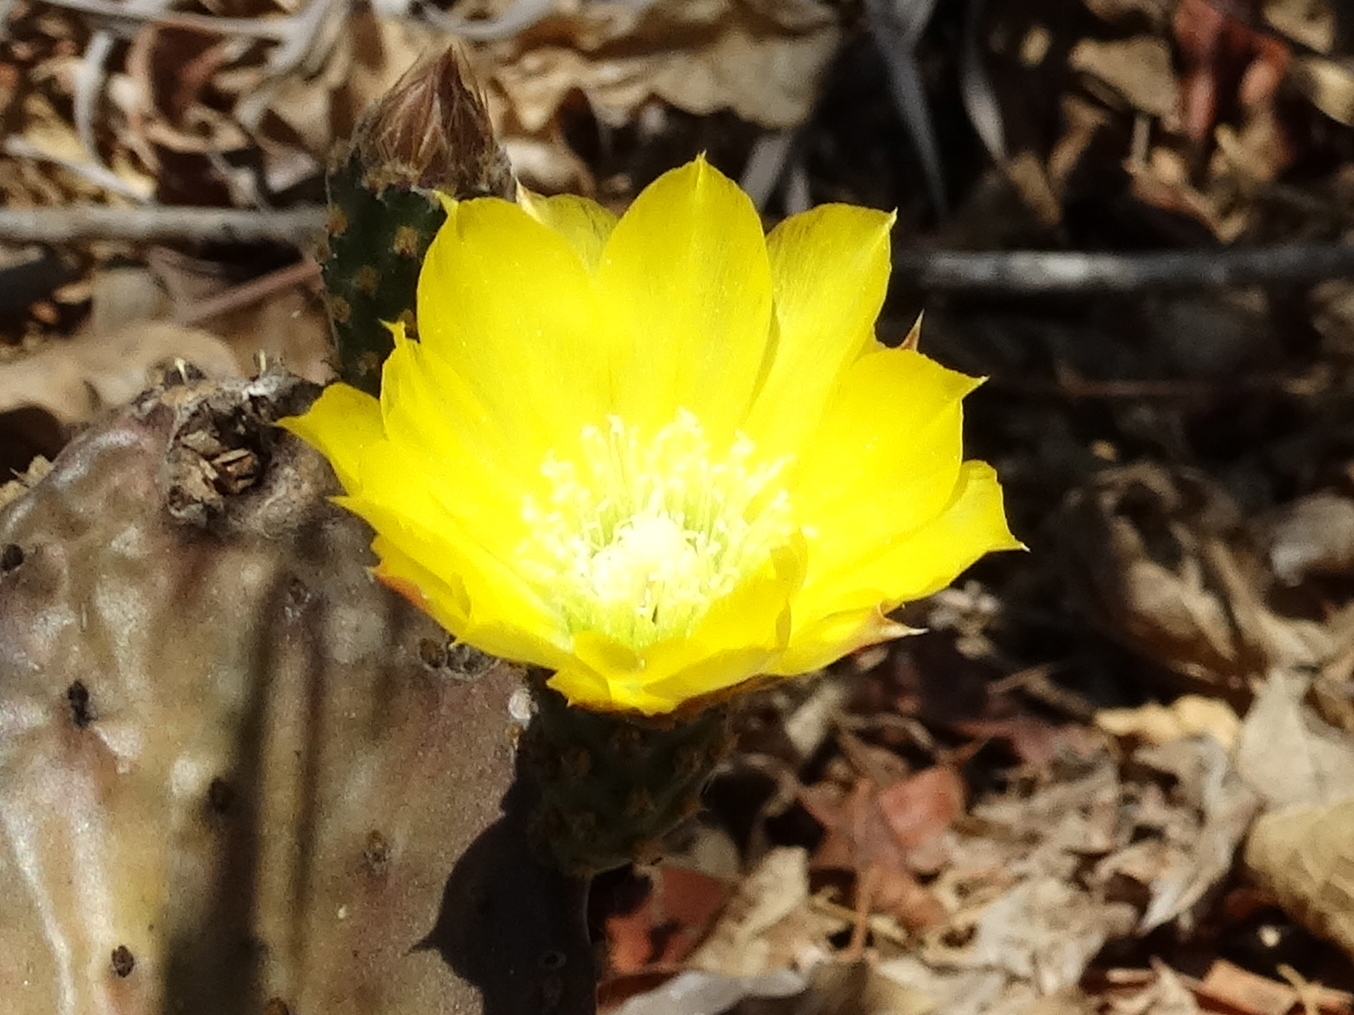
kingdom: Plantae
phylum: Tracheophyta
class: Magnoliopsida
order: Caryophyllales
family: Cactaceae
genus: Opuntia
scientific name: Opuntia decumbens
